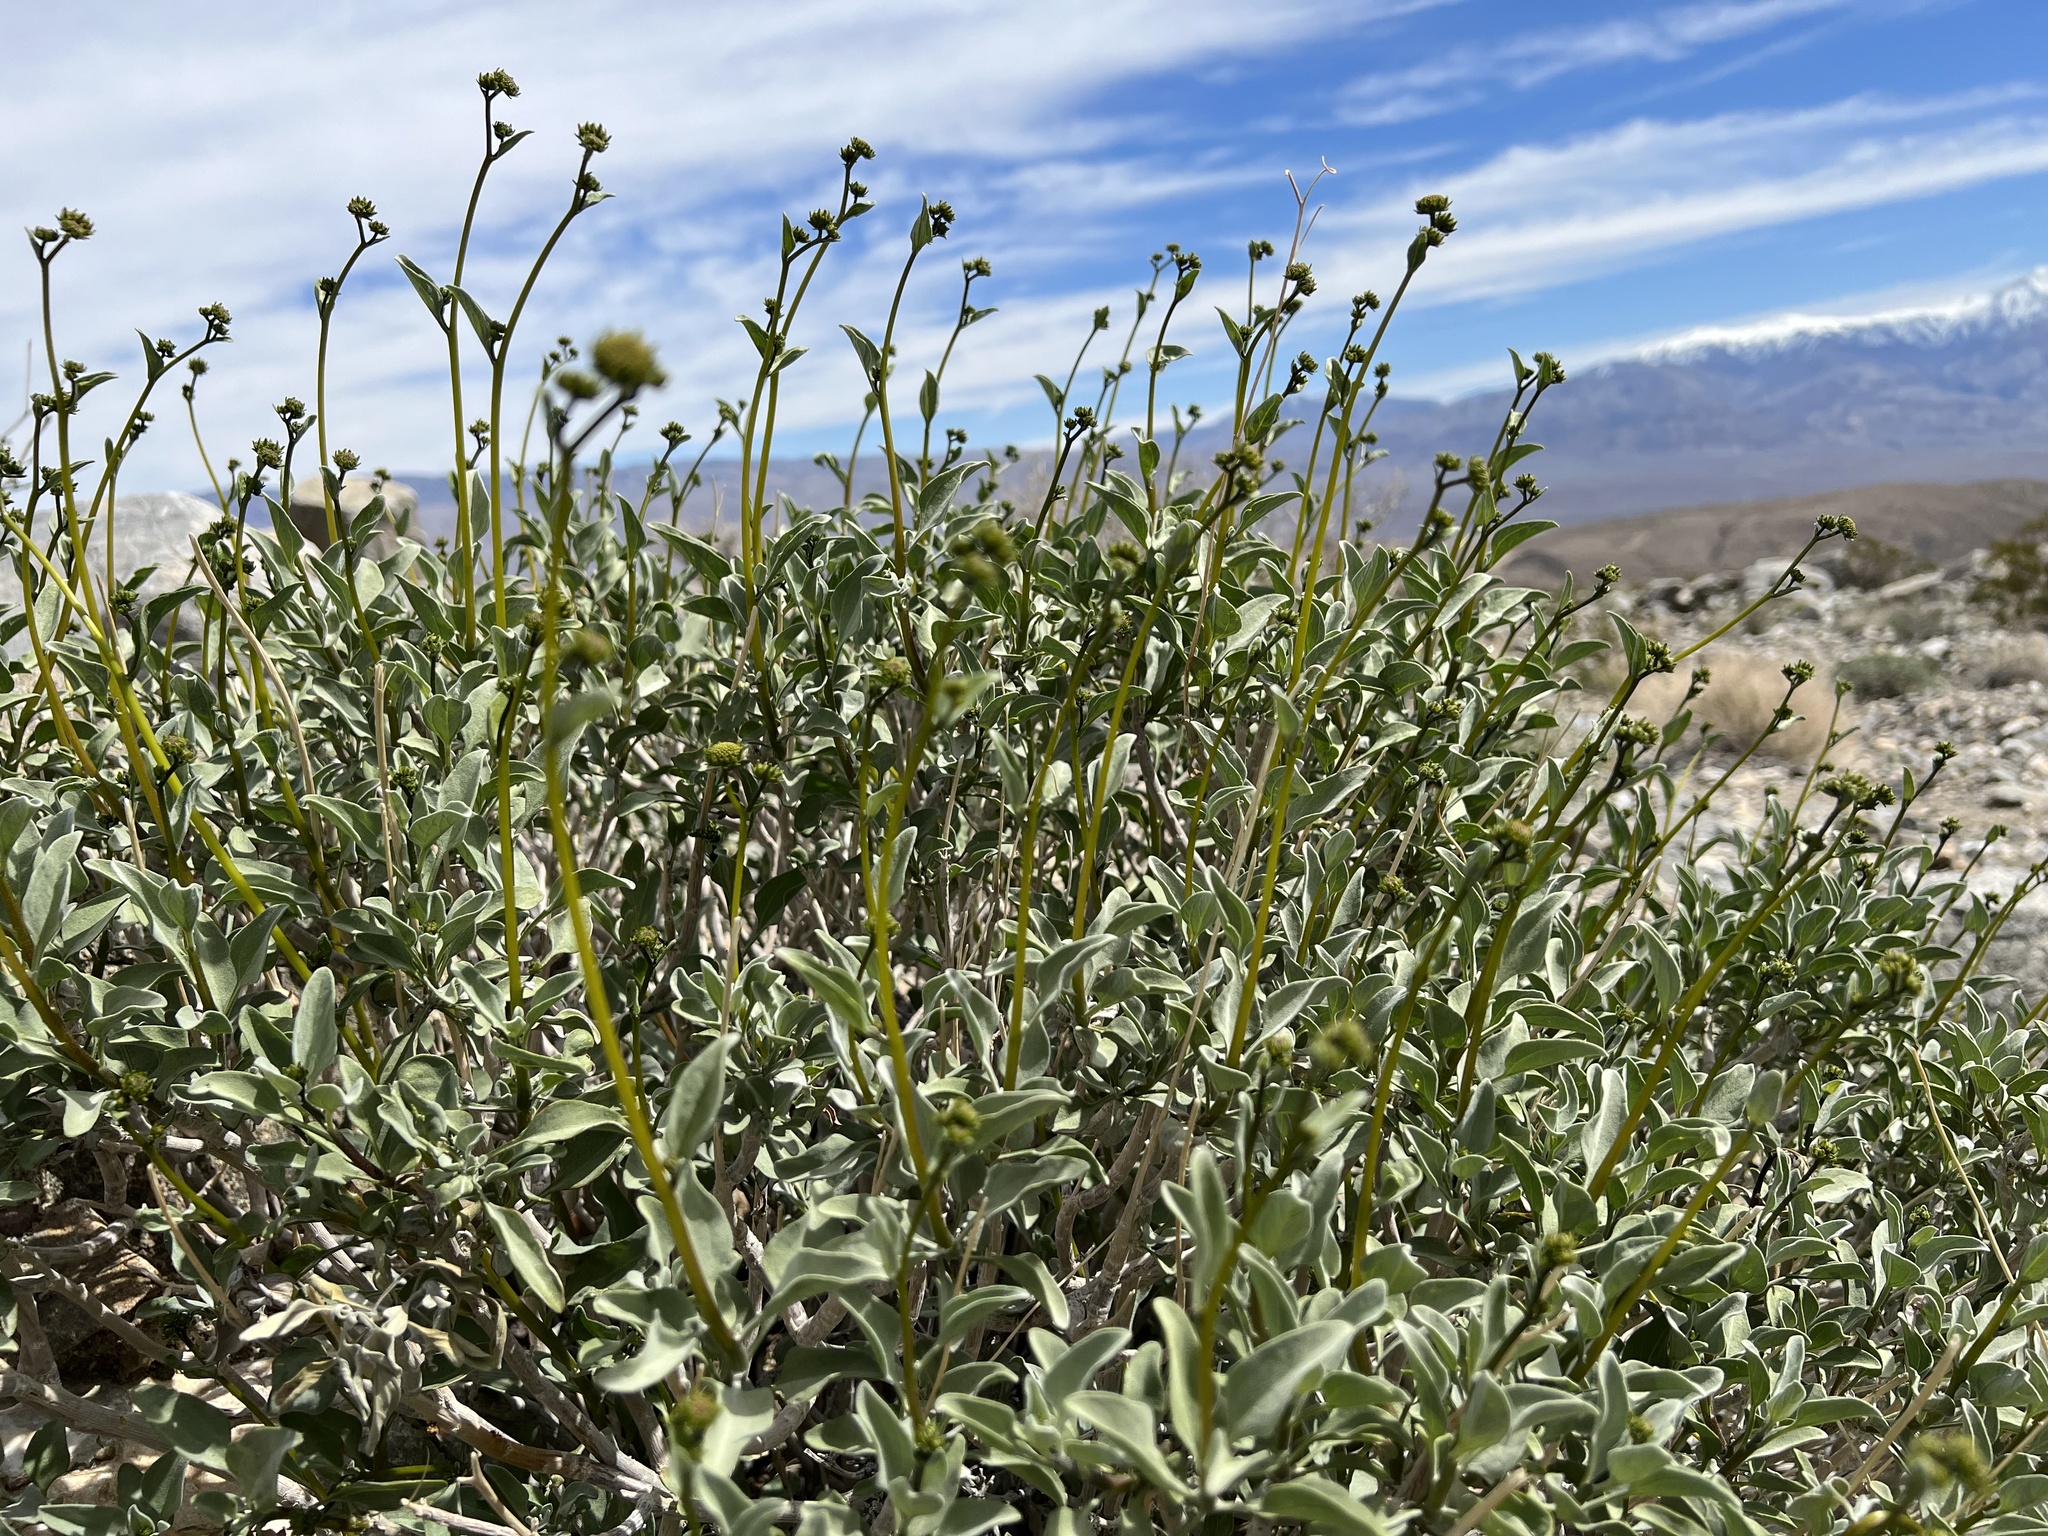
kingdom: Plantae
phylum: Tracheophyta
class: Magnoliopsida
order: Asterales
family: Asteraceae
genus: Encelia
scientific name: Encelia farinosa
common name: Brittlebush
